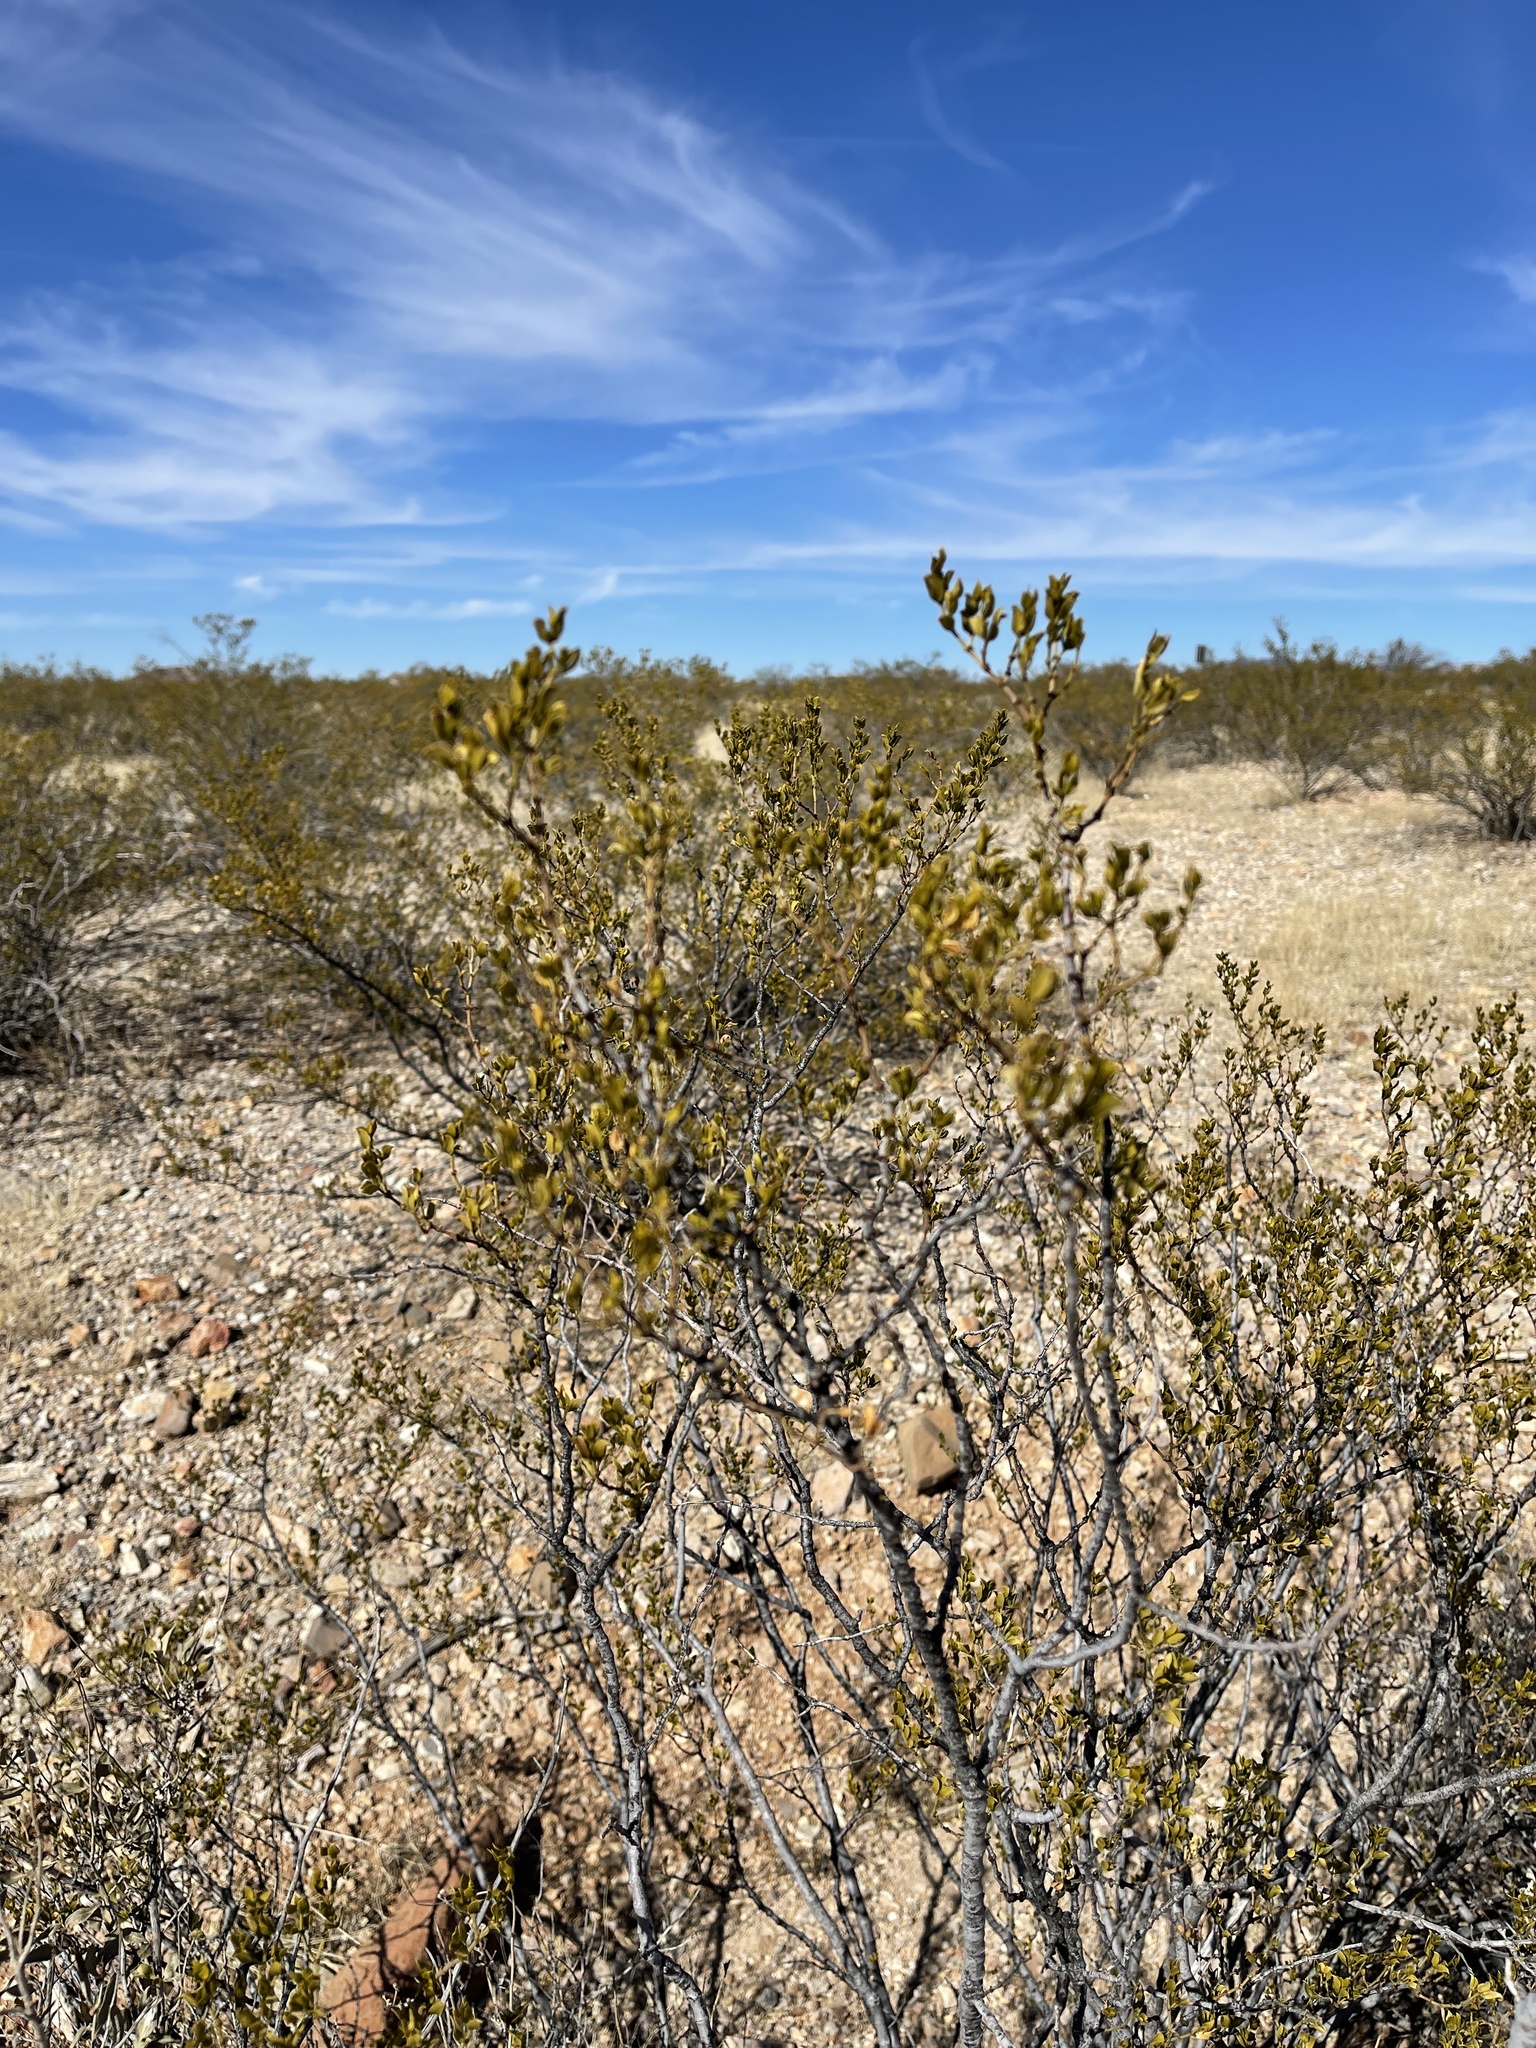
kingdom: Plantae
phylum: Tracheophyta
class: Magnoliopsida
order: Zygophyllales
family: Zygophyllaceae
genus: Larrea
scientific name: Larrea tridentata
